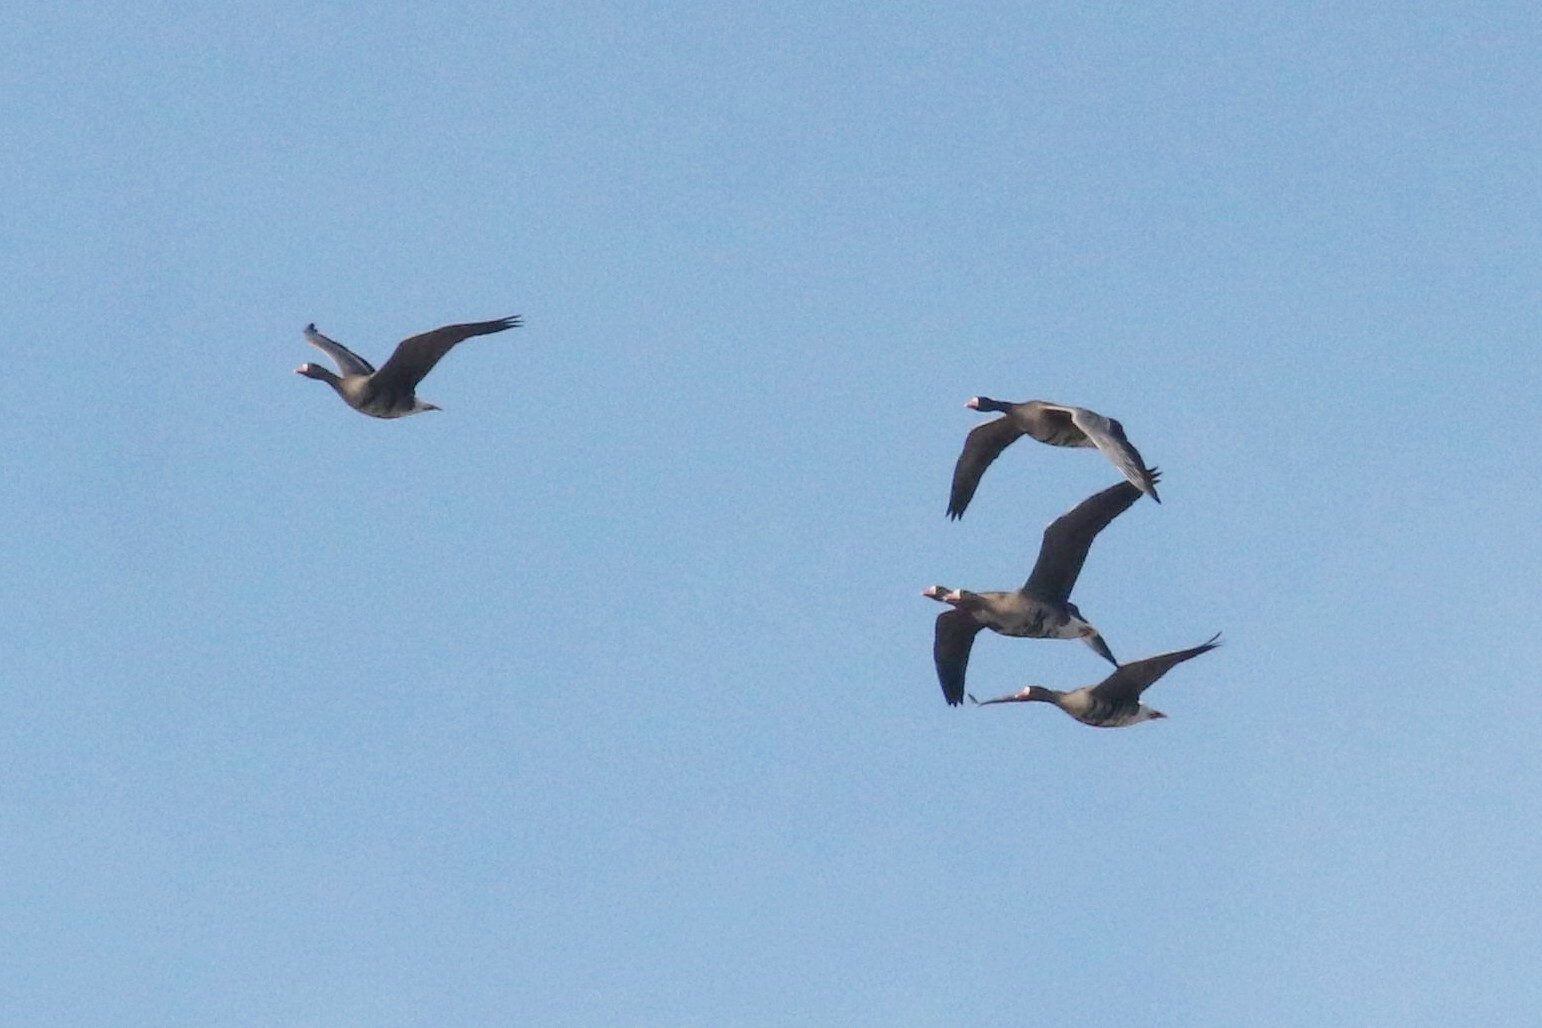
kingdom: Animalia
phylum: Chordata
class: Aves
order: Anseriformes
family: Anatidae
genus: Anser
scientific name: Anser albifrons
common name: Greater white-fronted goose
